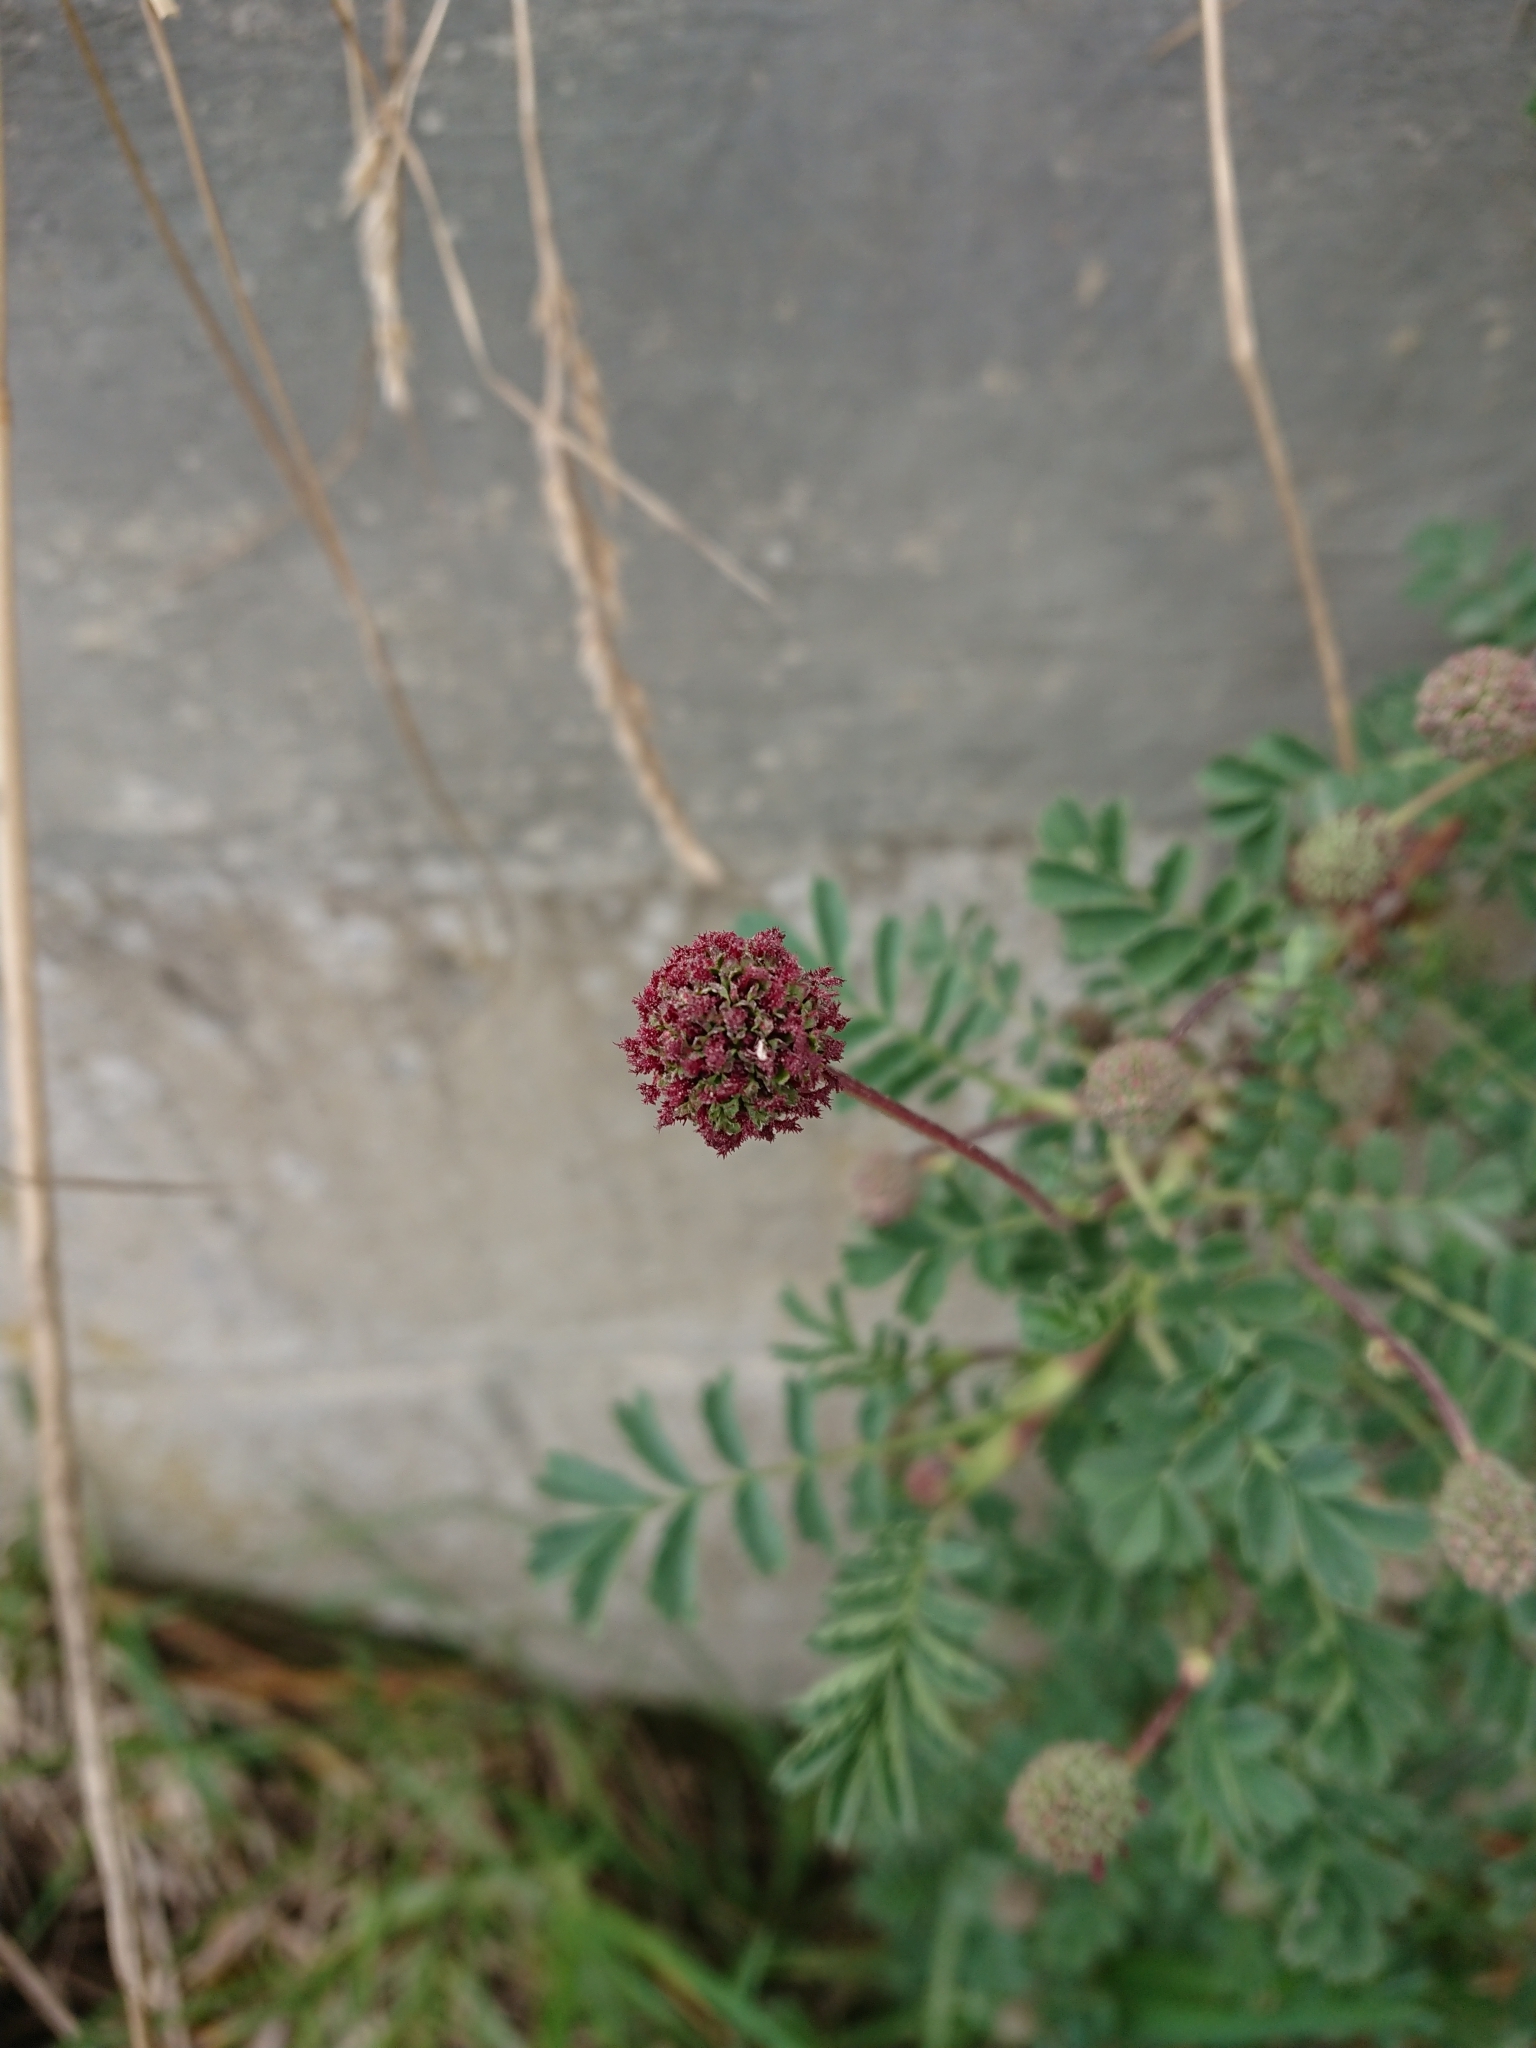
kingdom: Plantae
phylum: Tracheophyta
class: Magnoliopsida
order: Rosales
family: Rosaceae
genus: Acaena
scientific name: Acaena magellanica
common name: New zealand burr
